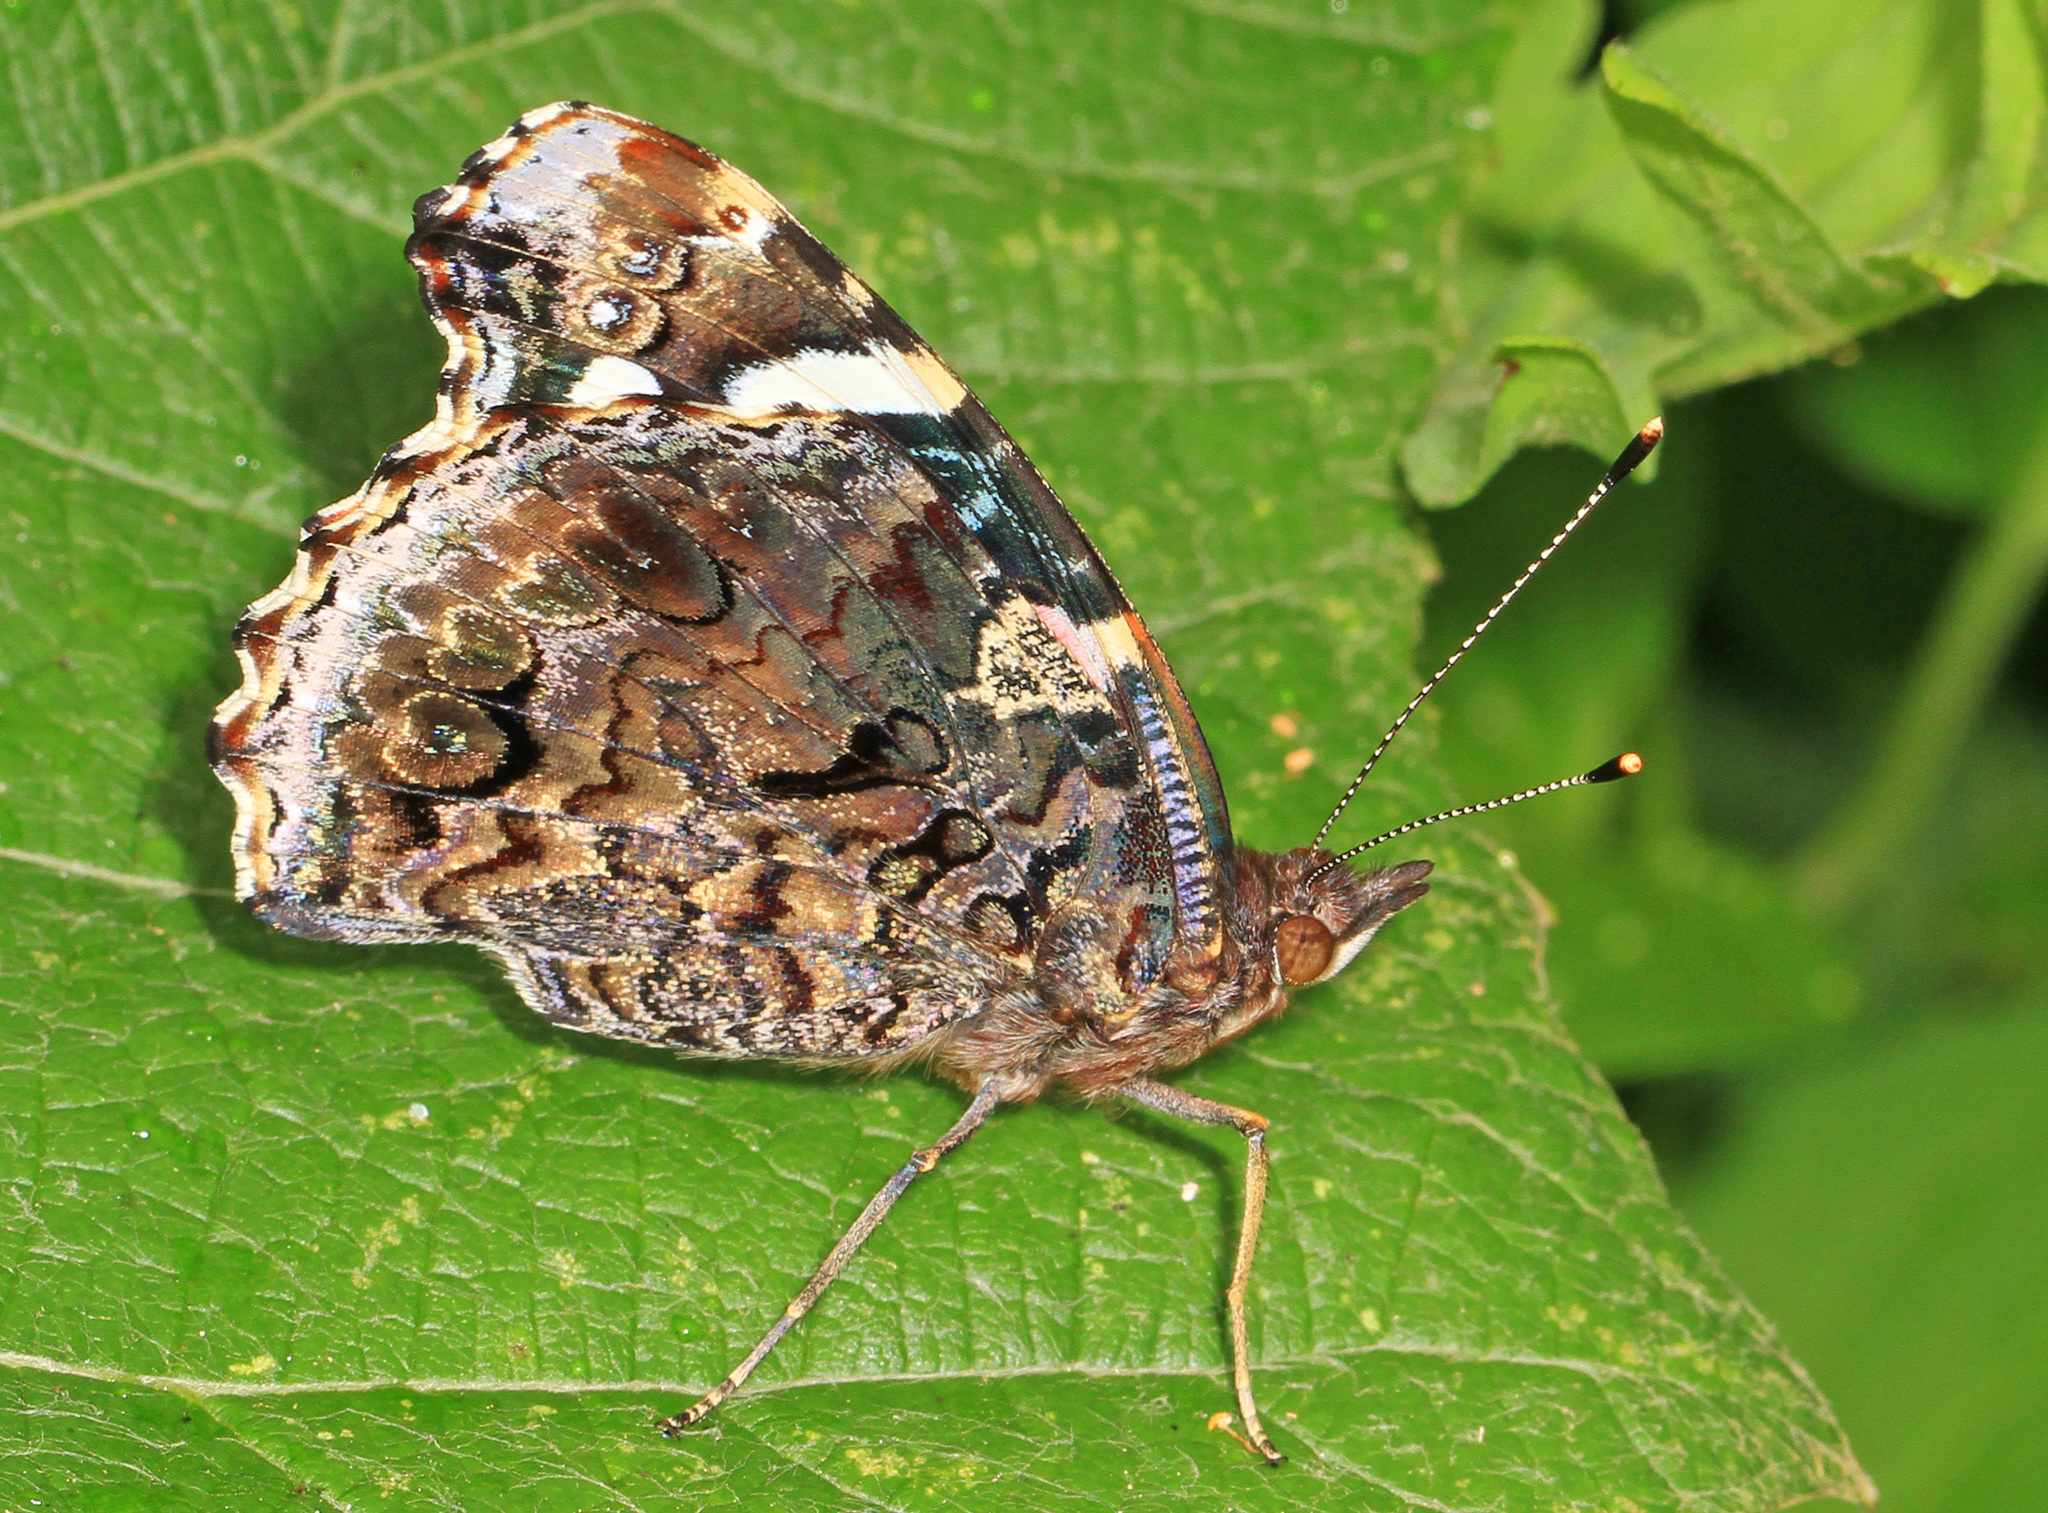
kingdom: Animalia
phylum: Arthropoda
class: Insecta
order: Lepidoptera
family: Nymphalidae
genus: Vanessa
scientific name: Vanessa atalanta
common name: Red admiral
